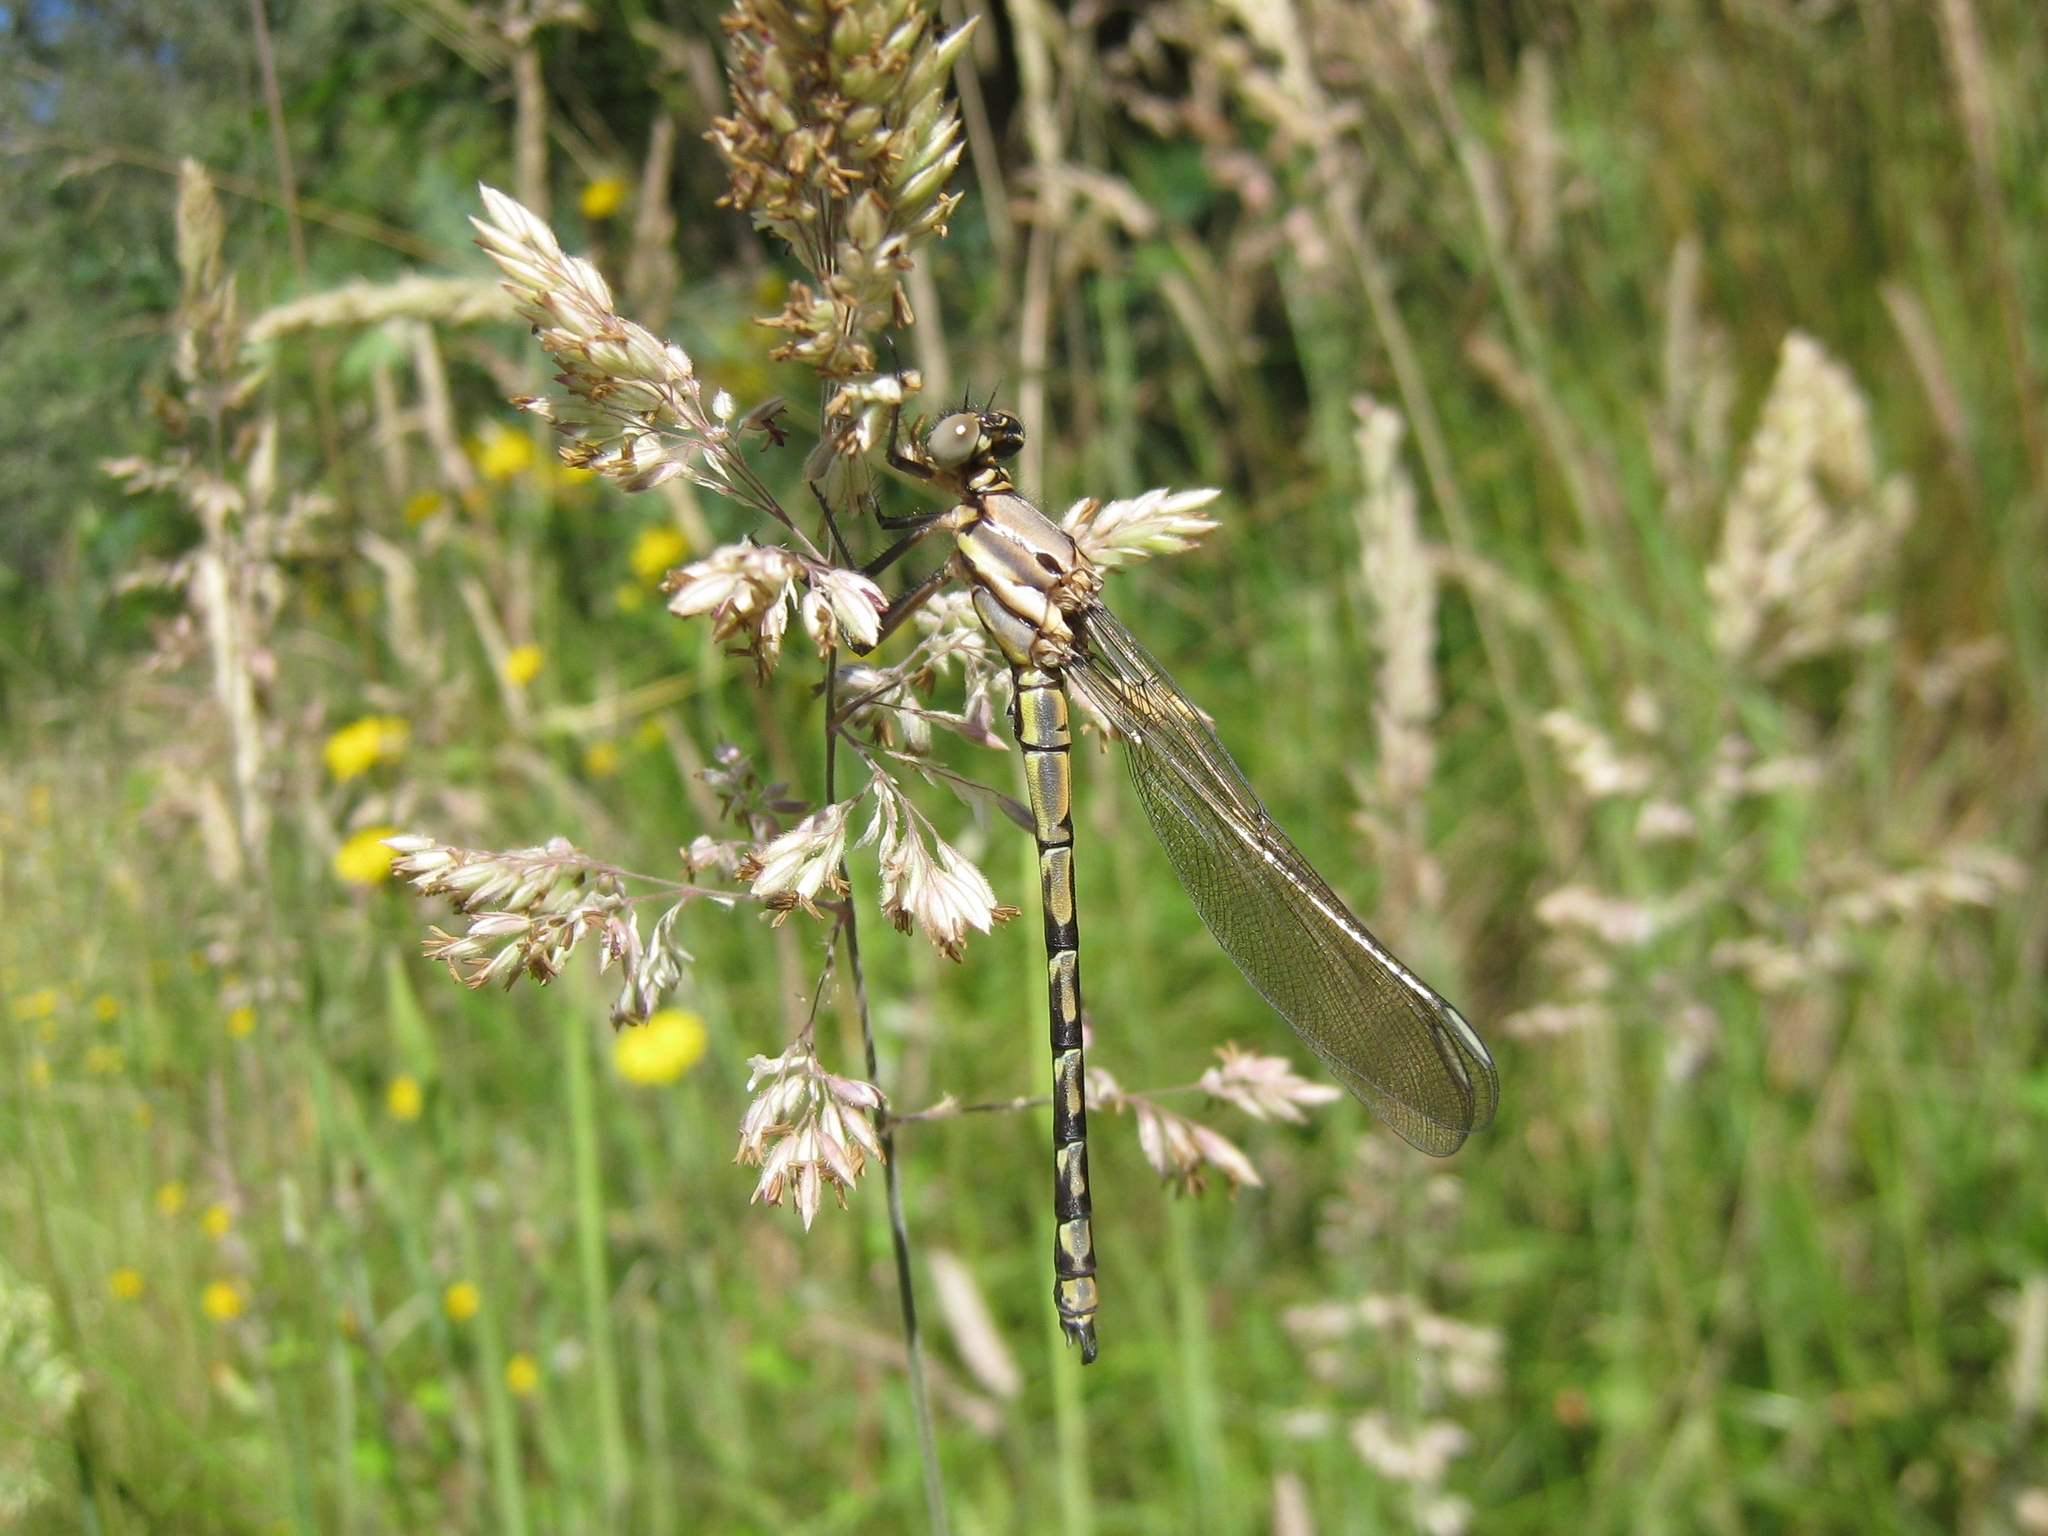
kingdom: Animalia
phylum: Arthropoda
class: Insecta
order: Odonata
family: Lestoideidae
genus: Diphlebia
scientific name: Diphlebia nymphoides
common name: Arrowhead rockmaster
